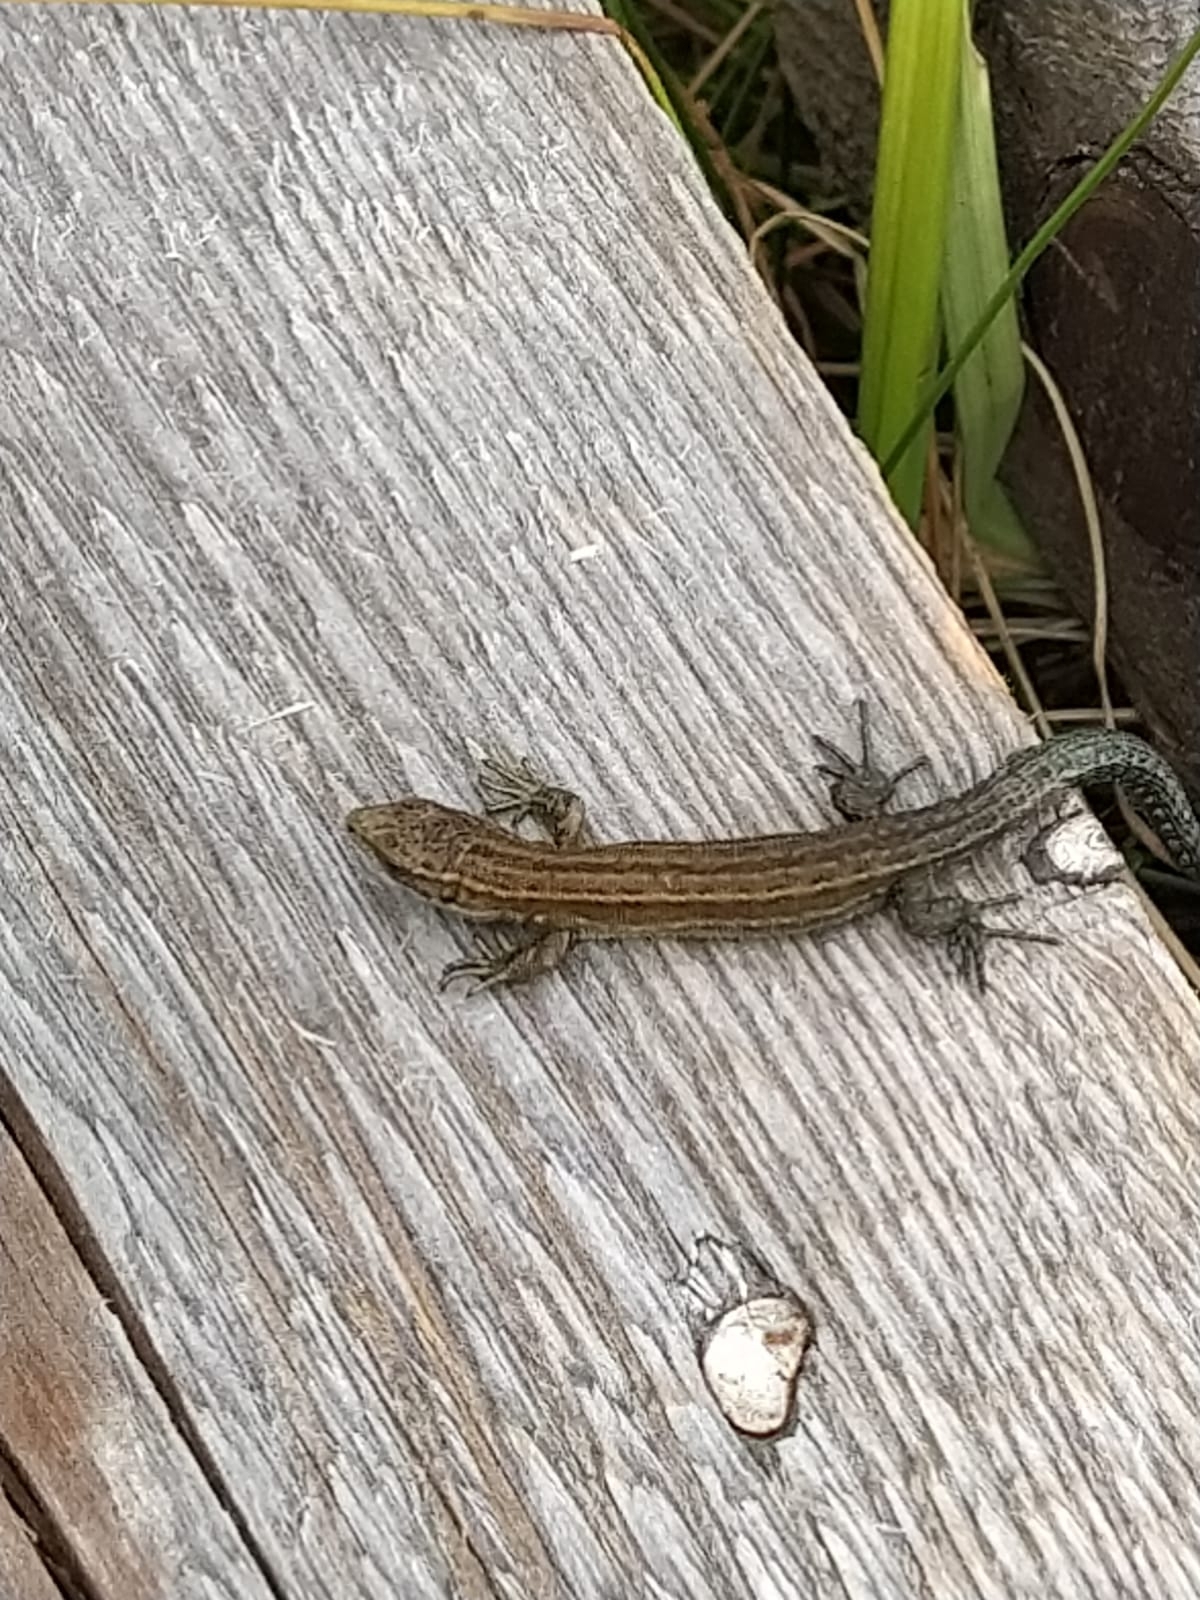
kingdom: Animalia
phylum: Chordata
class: Squamata
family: Lacertidae
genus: Zootoca
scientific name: Zootoca vivipara
